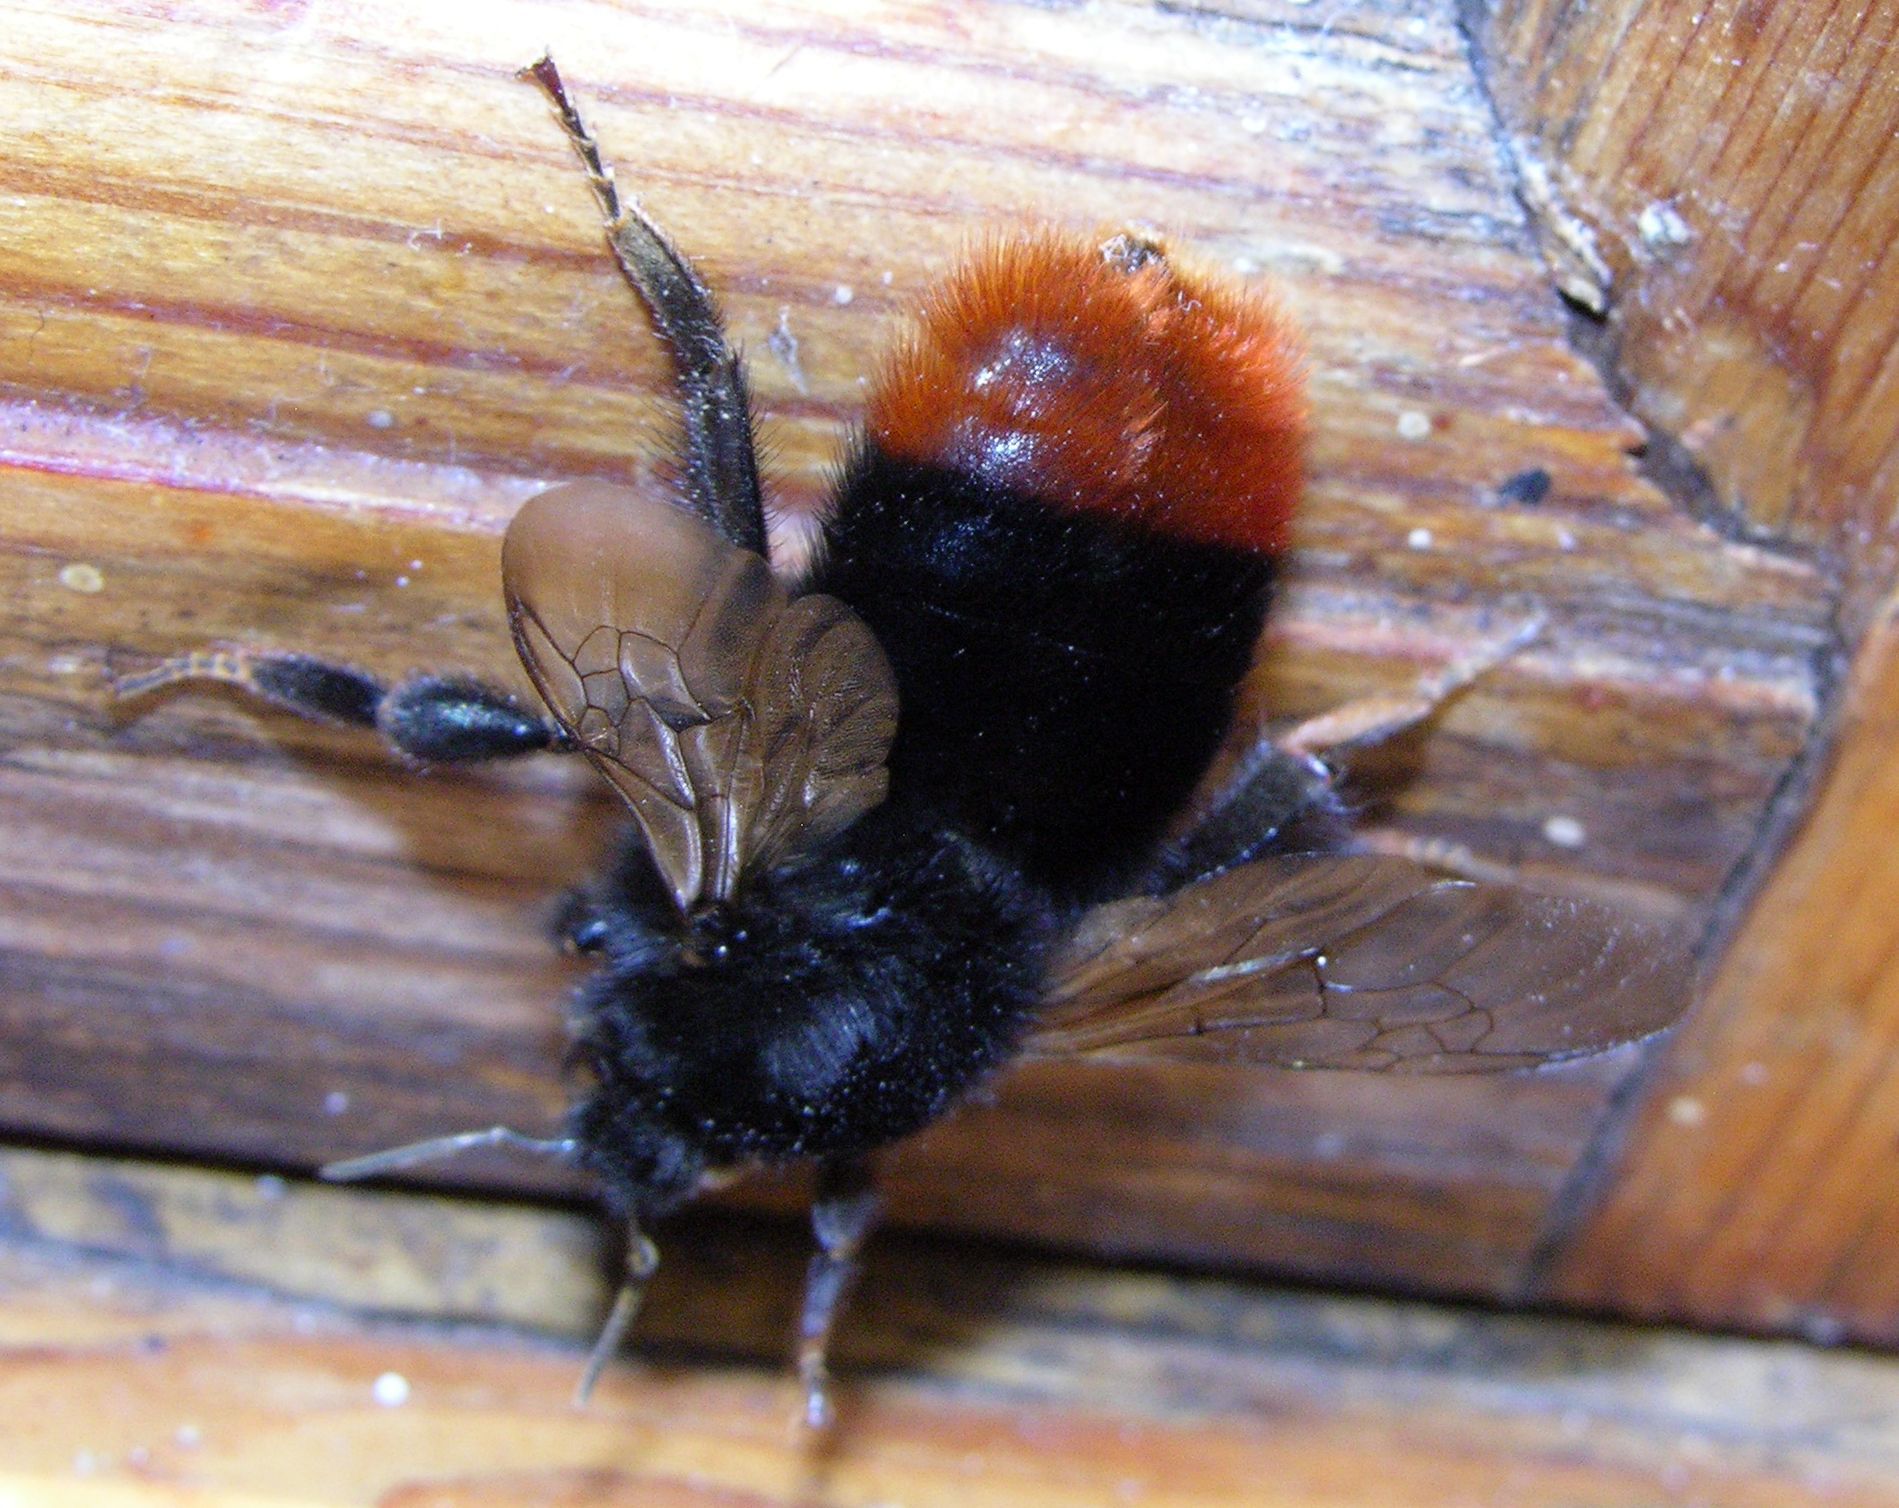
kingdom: Animalia
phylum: Arthropoda
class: Insecta
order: Hymenoptera
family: Apidae
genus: Bombus
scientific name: Bombus lapidarius
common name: Large red-tailed humble-bee
